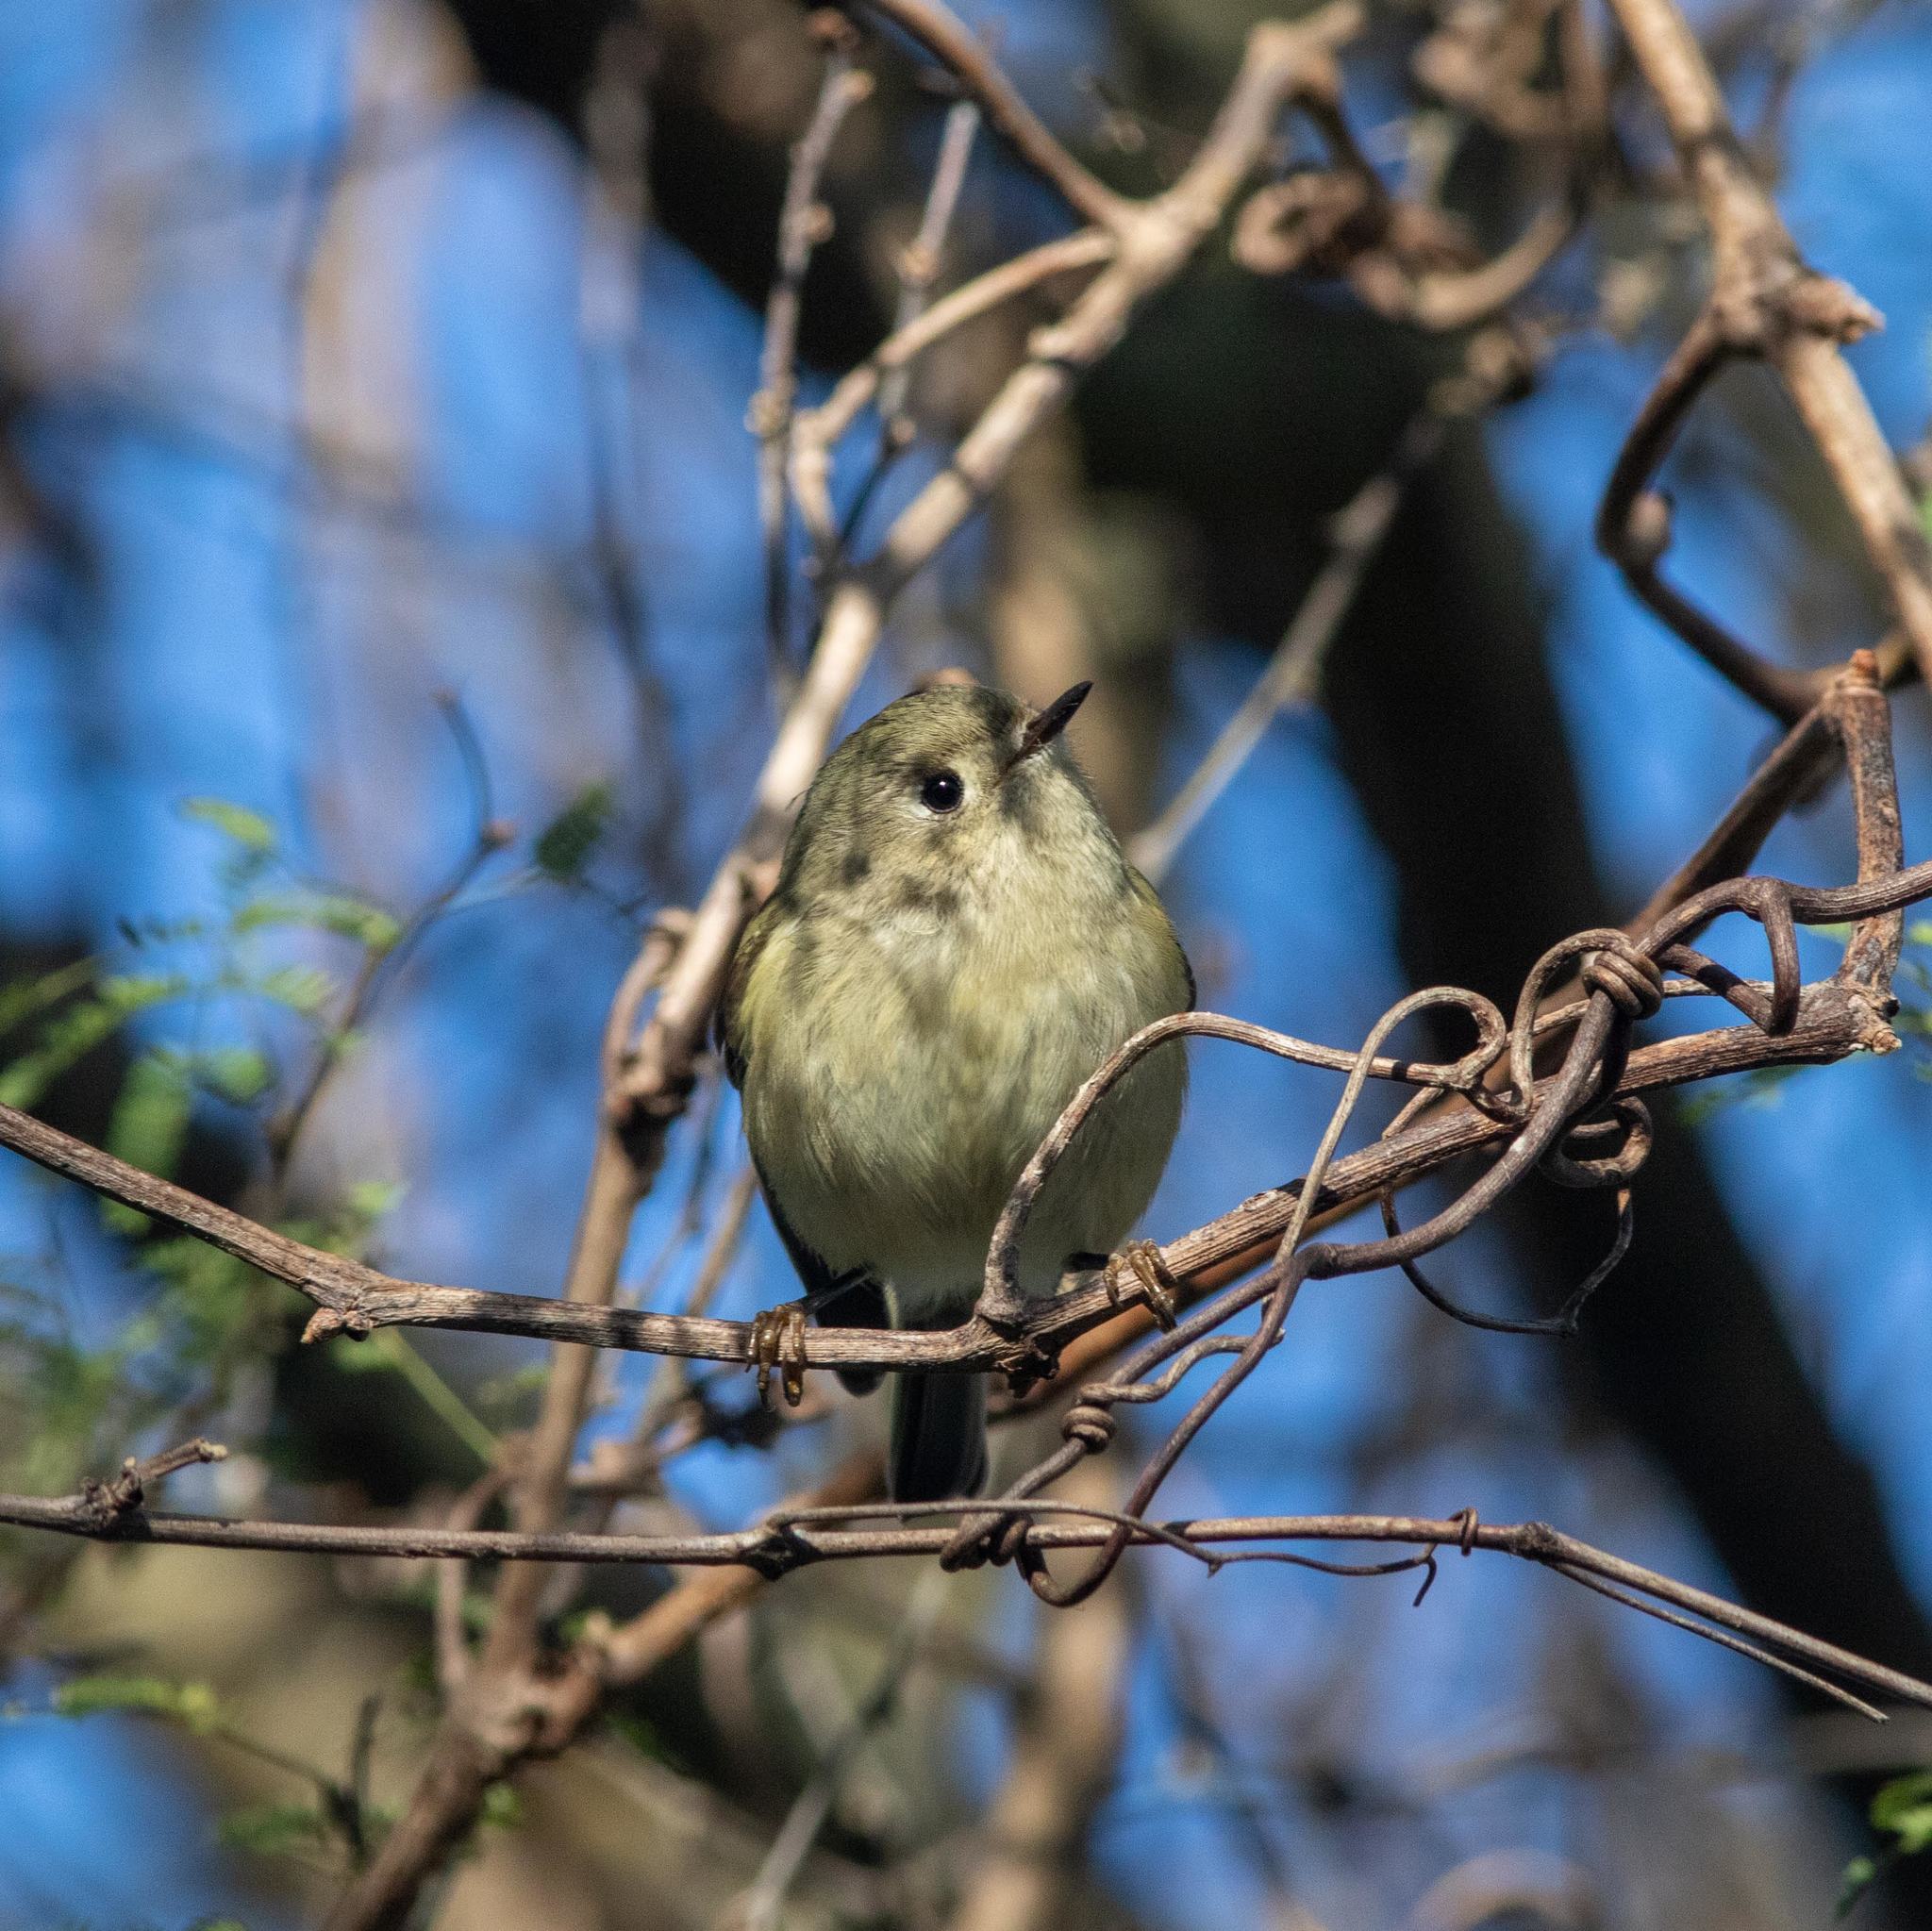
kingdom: Animalia
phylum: Chordata
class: Aves
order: Passeriformes
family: Regulidae
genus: Regulus
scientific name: Regulus calendula
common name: Ruby-crowned kinglet
